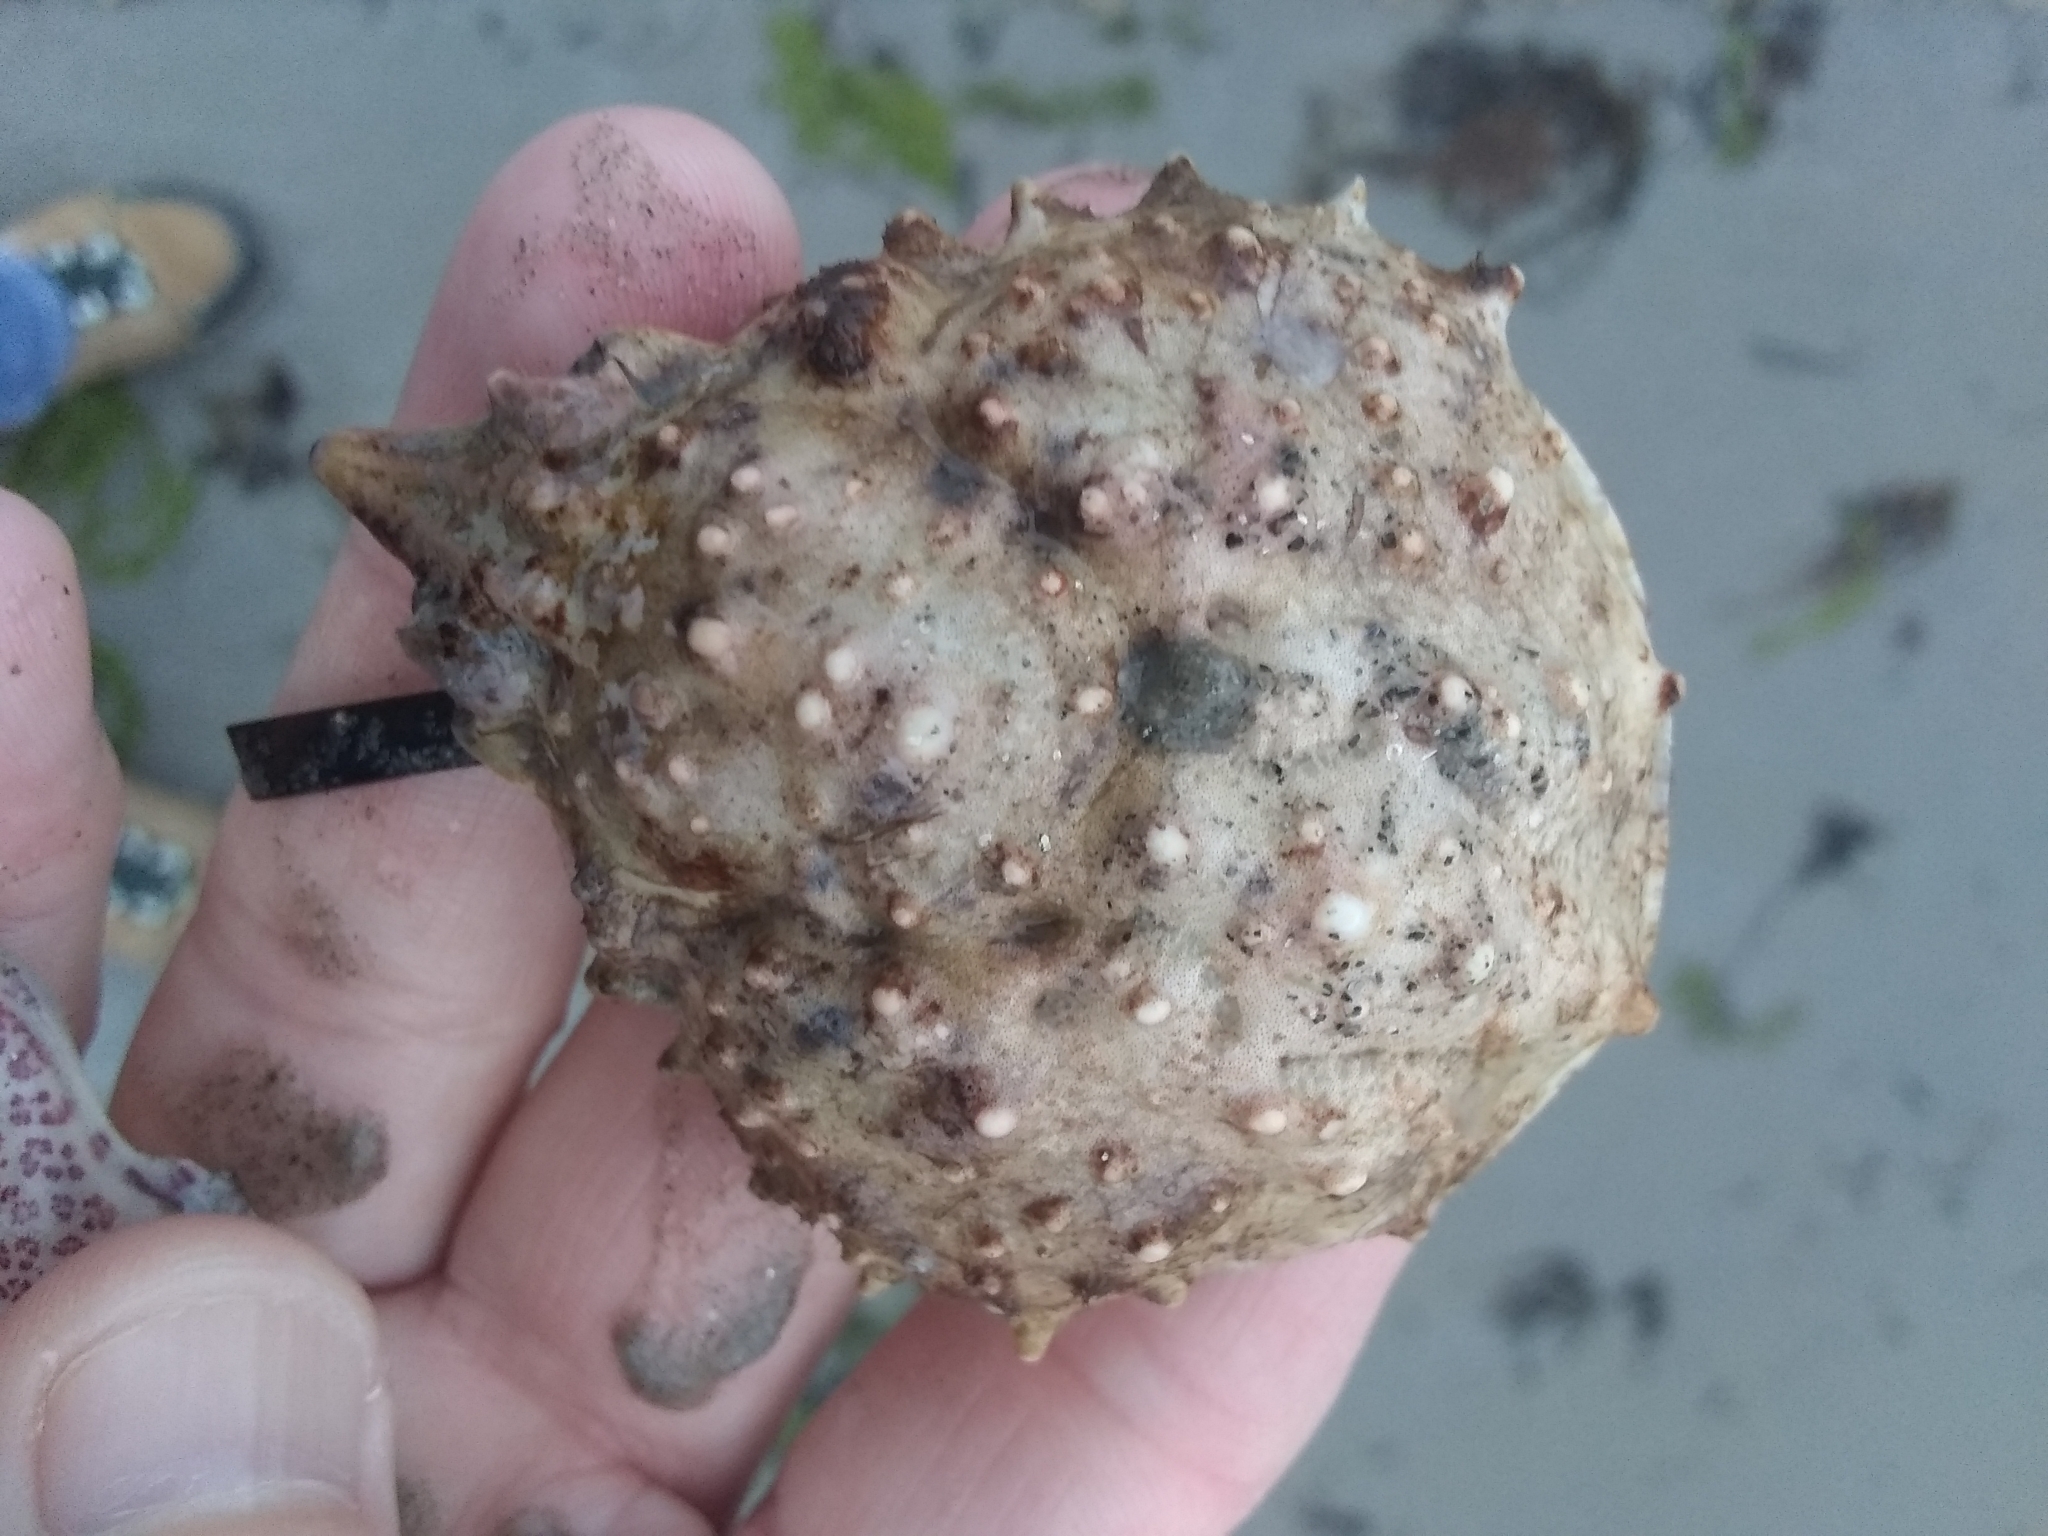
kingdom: Animalia
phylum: Arthropoda
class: Malacostraca
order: Decapoda
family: Epialtidae
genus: Libinia
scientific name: Libinia emarginata
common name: Common spider crab
